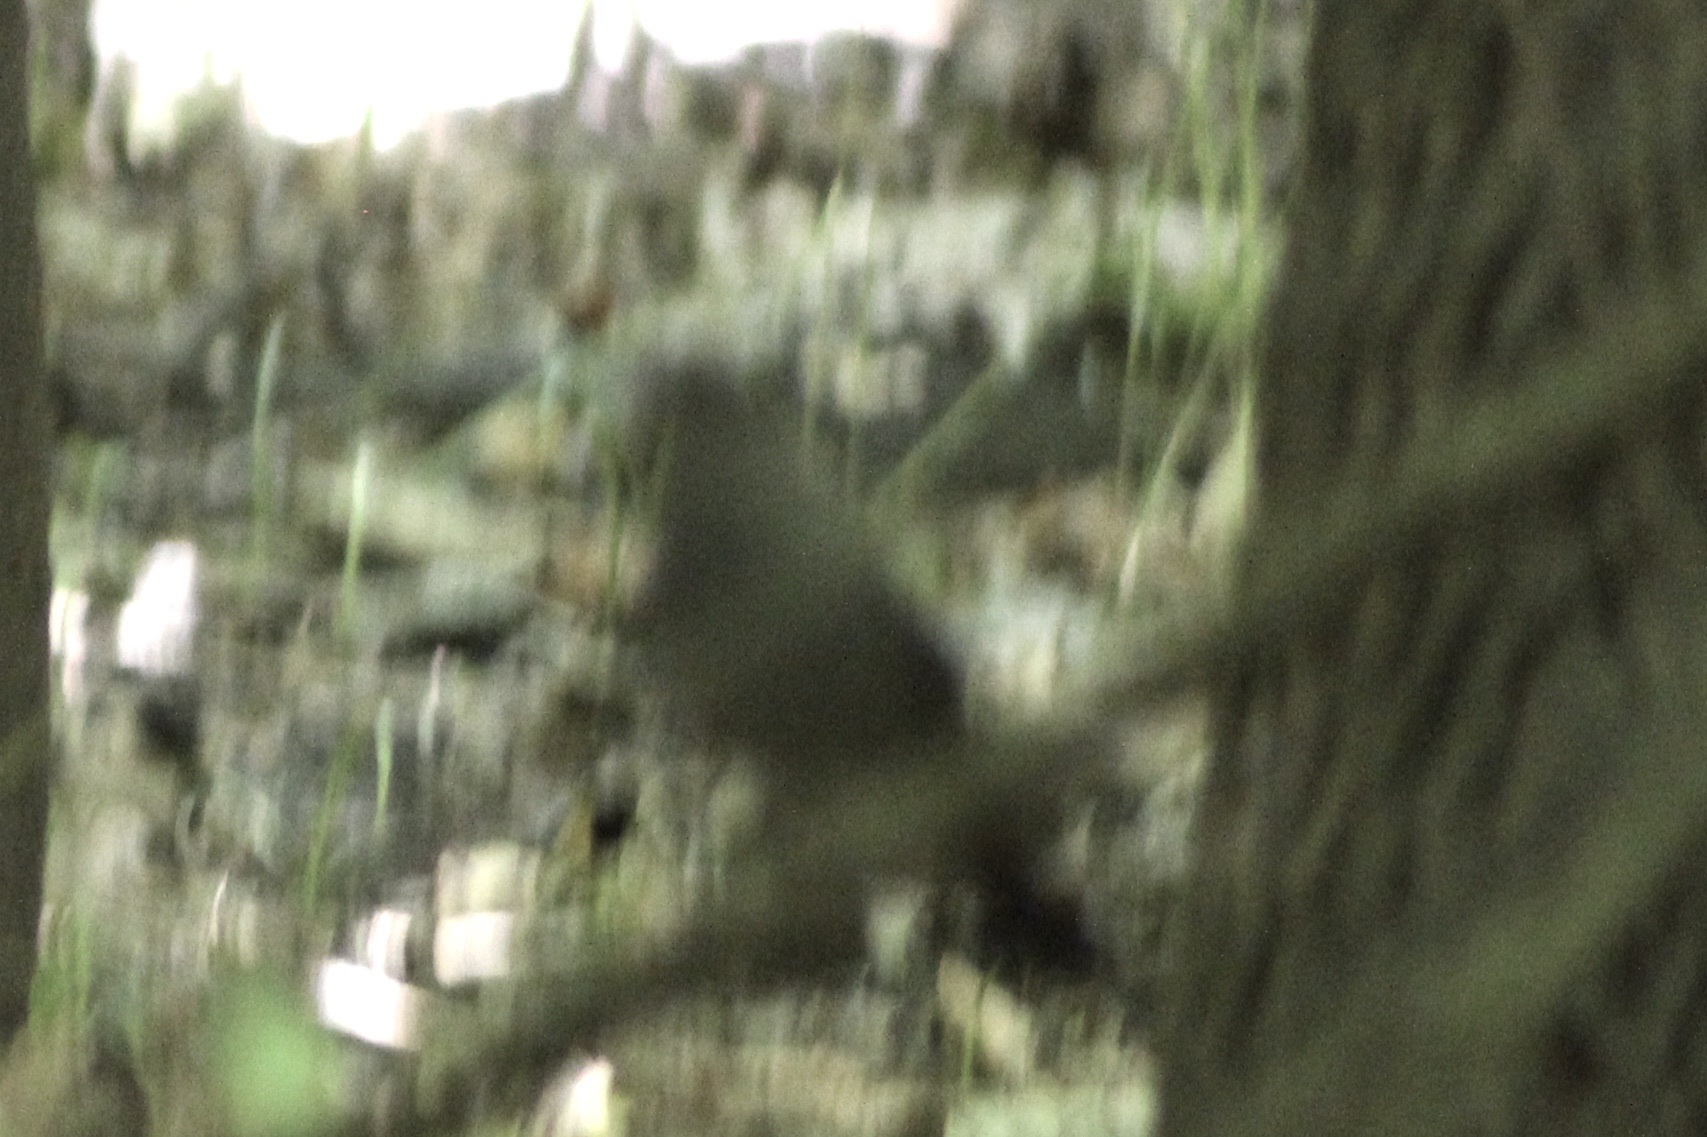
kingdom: Animalia
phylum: Chordata
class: Aves
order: Passeriformes
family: Mimidae
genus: Dumetella
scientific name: Dumetella carolinensis
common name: Gray catbird
